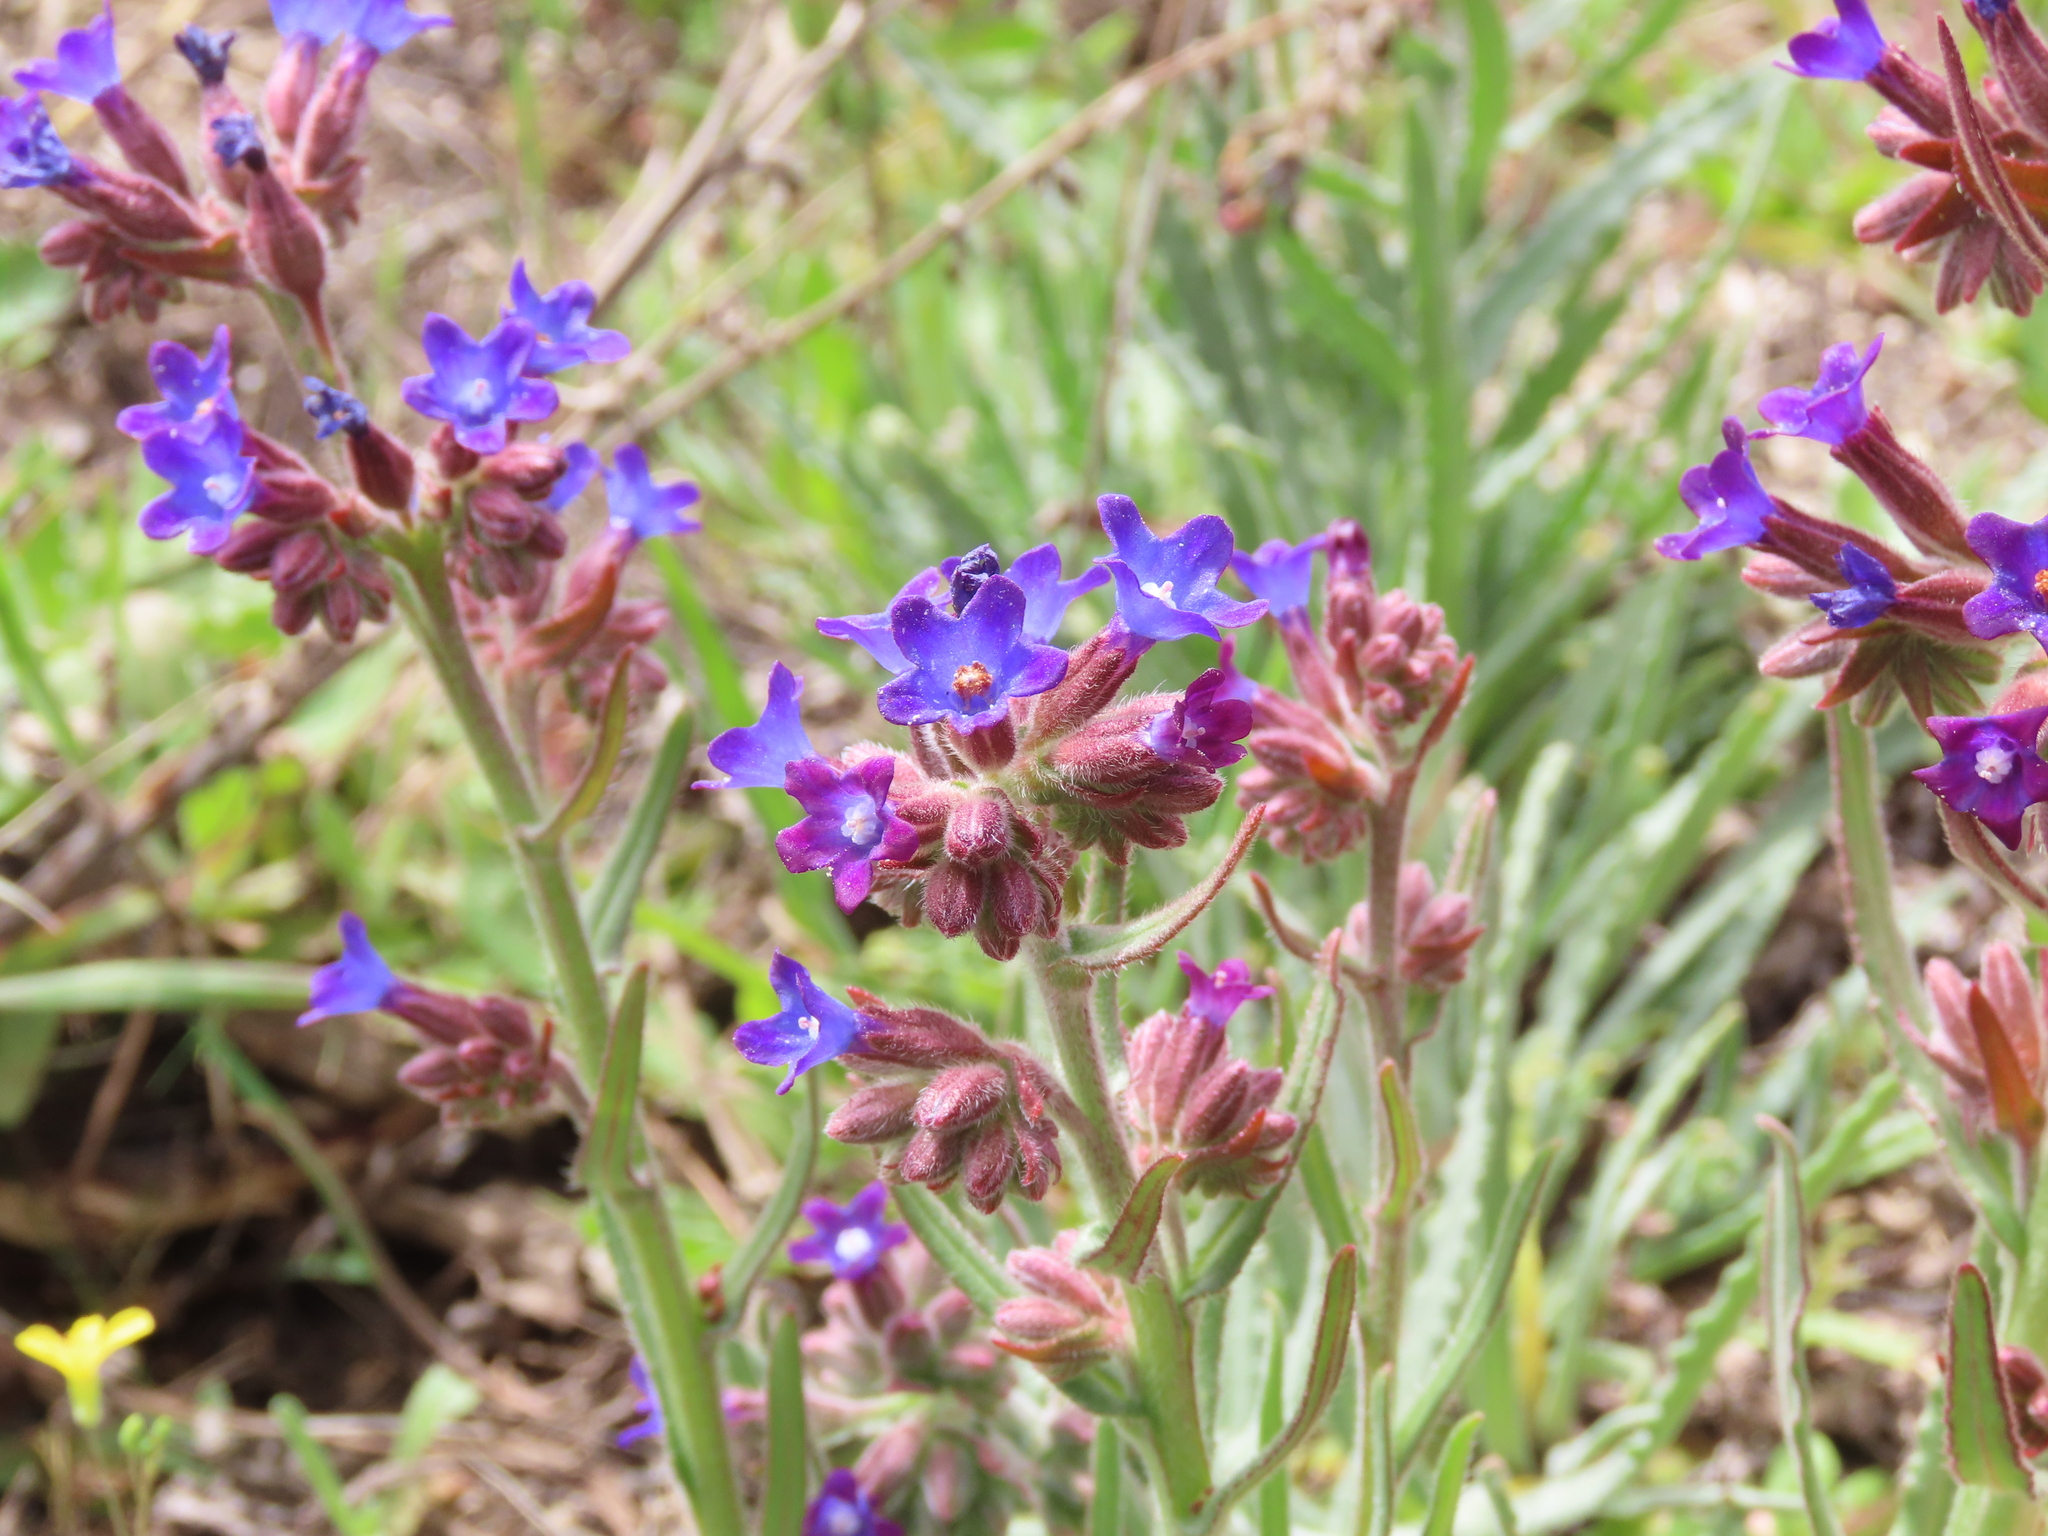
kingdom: Plantae
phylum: Tracheophyta
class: Magnoliopsida
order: Boraginales
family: Boraginaceae
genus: Anchusa
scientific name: Anchusa undulata
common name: Undulate alkanet
